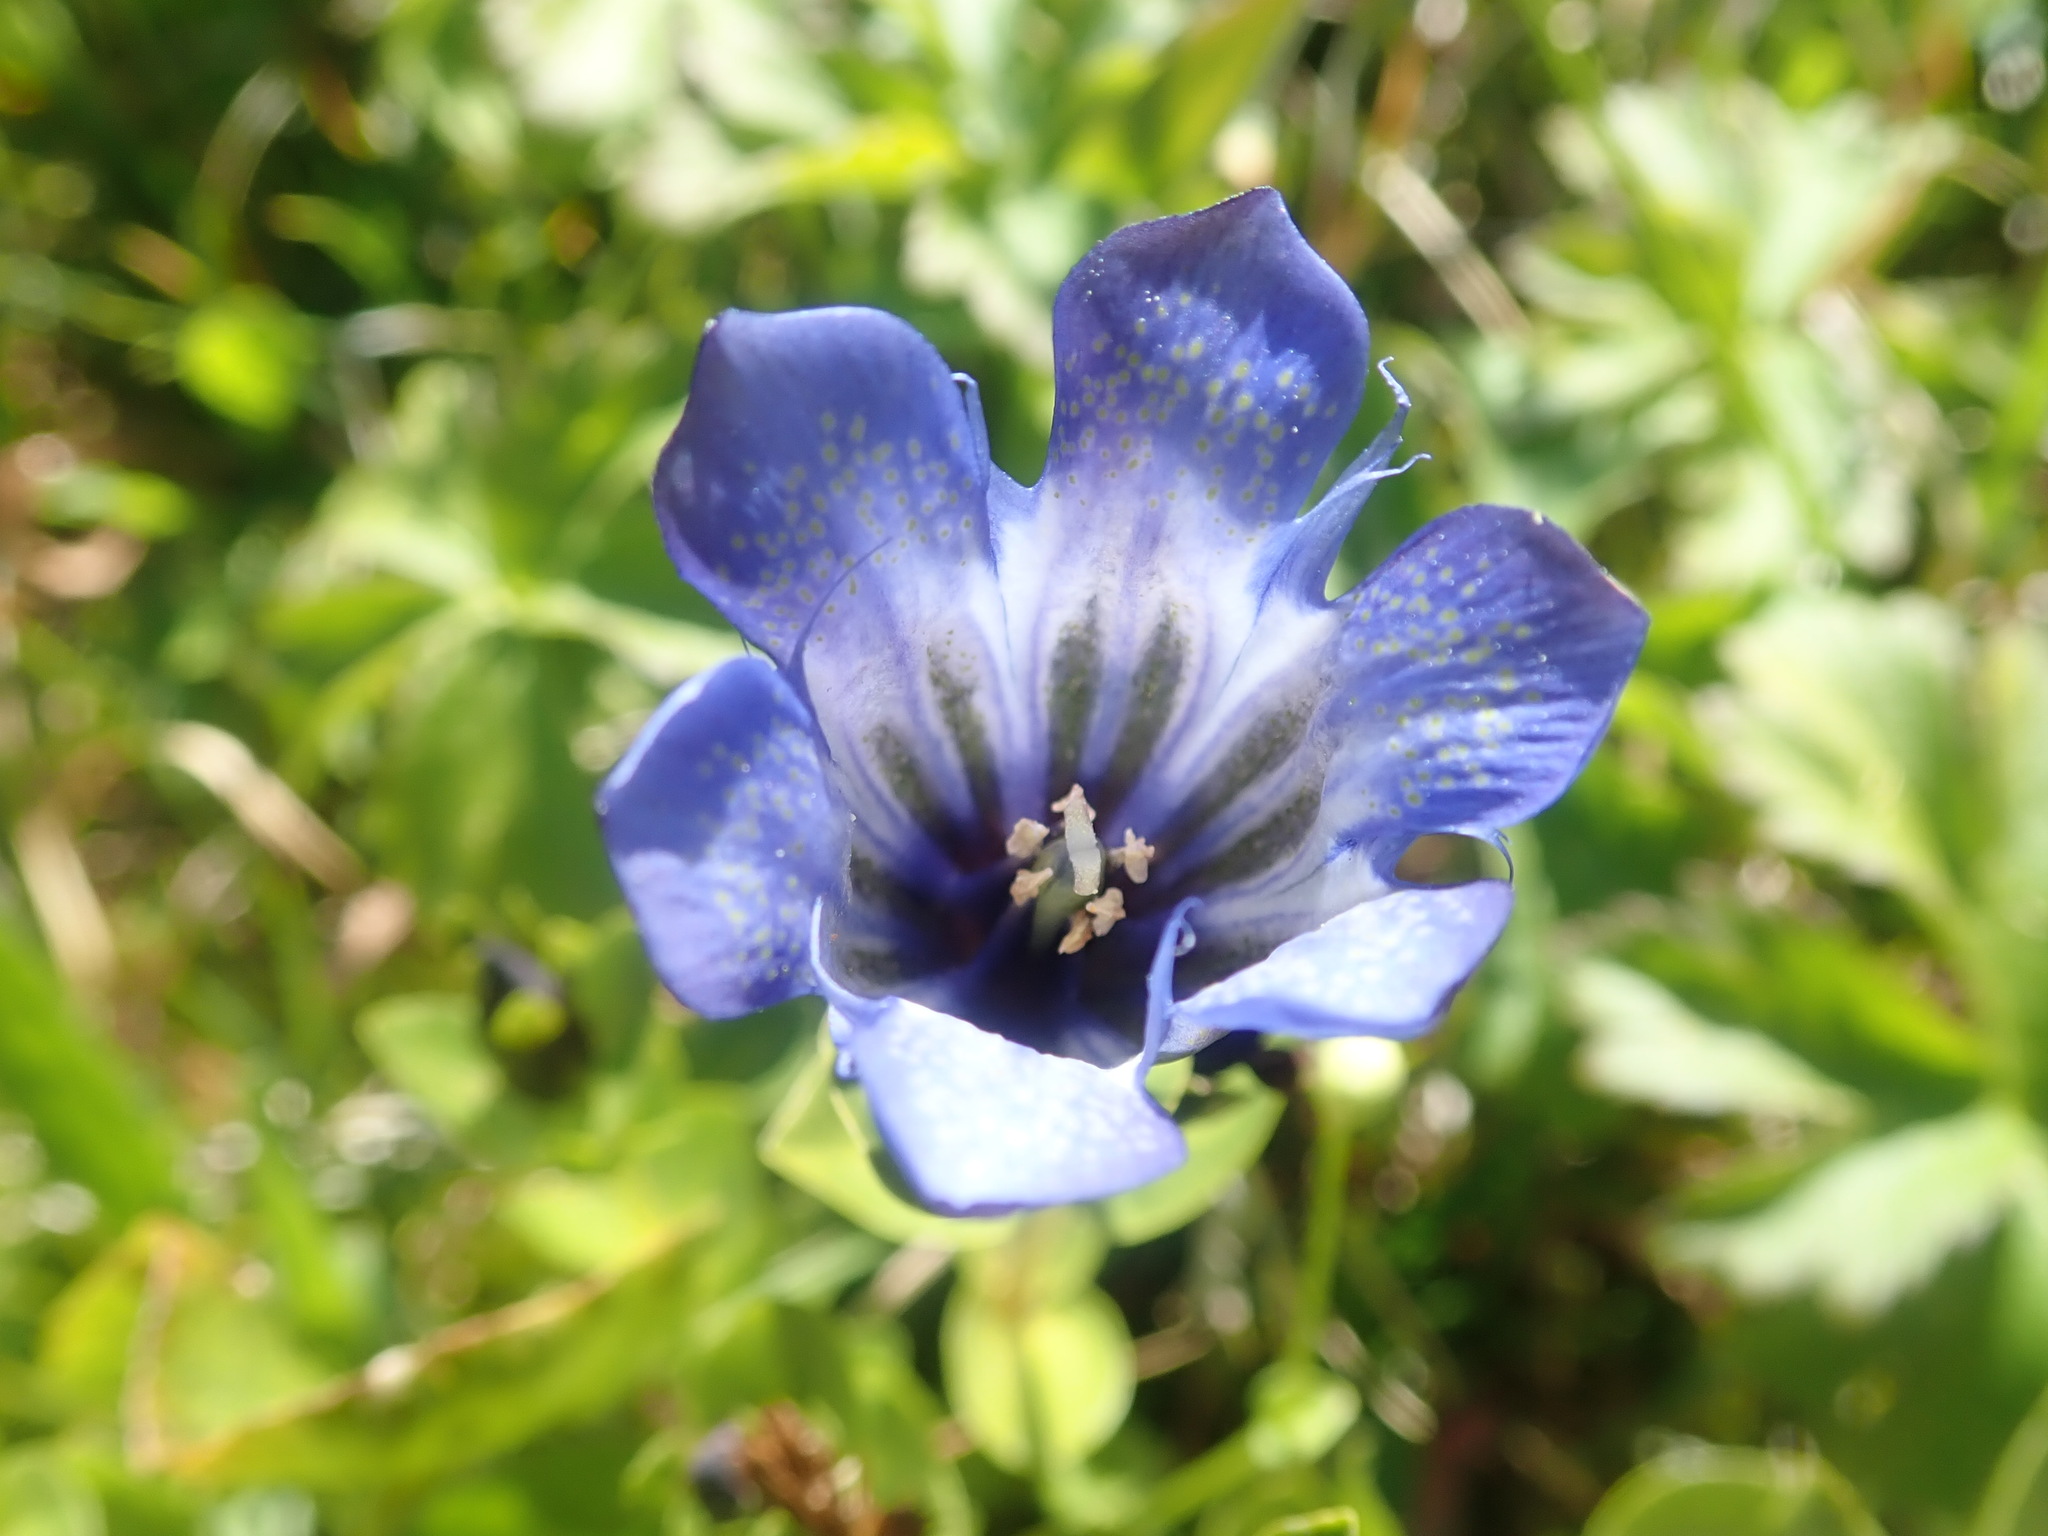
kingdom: Plantae
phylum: Tracheophyta
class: Magnoliopsida
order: Gentianales
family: Gentianaceae
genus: Gentiana
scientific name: Gentiana calycosa
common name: Rainier pleated gentian
